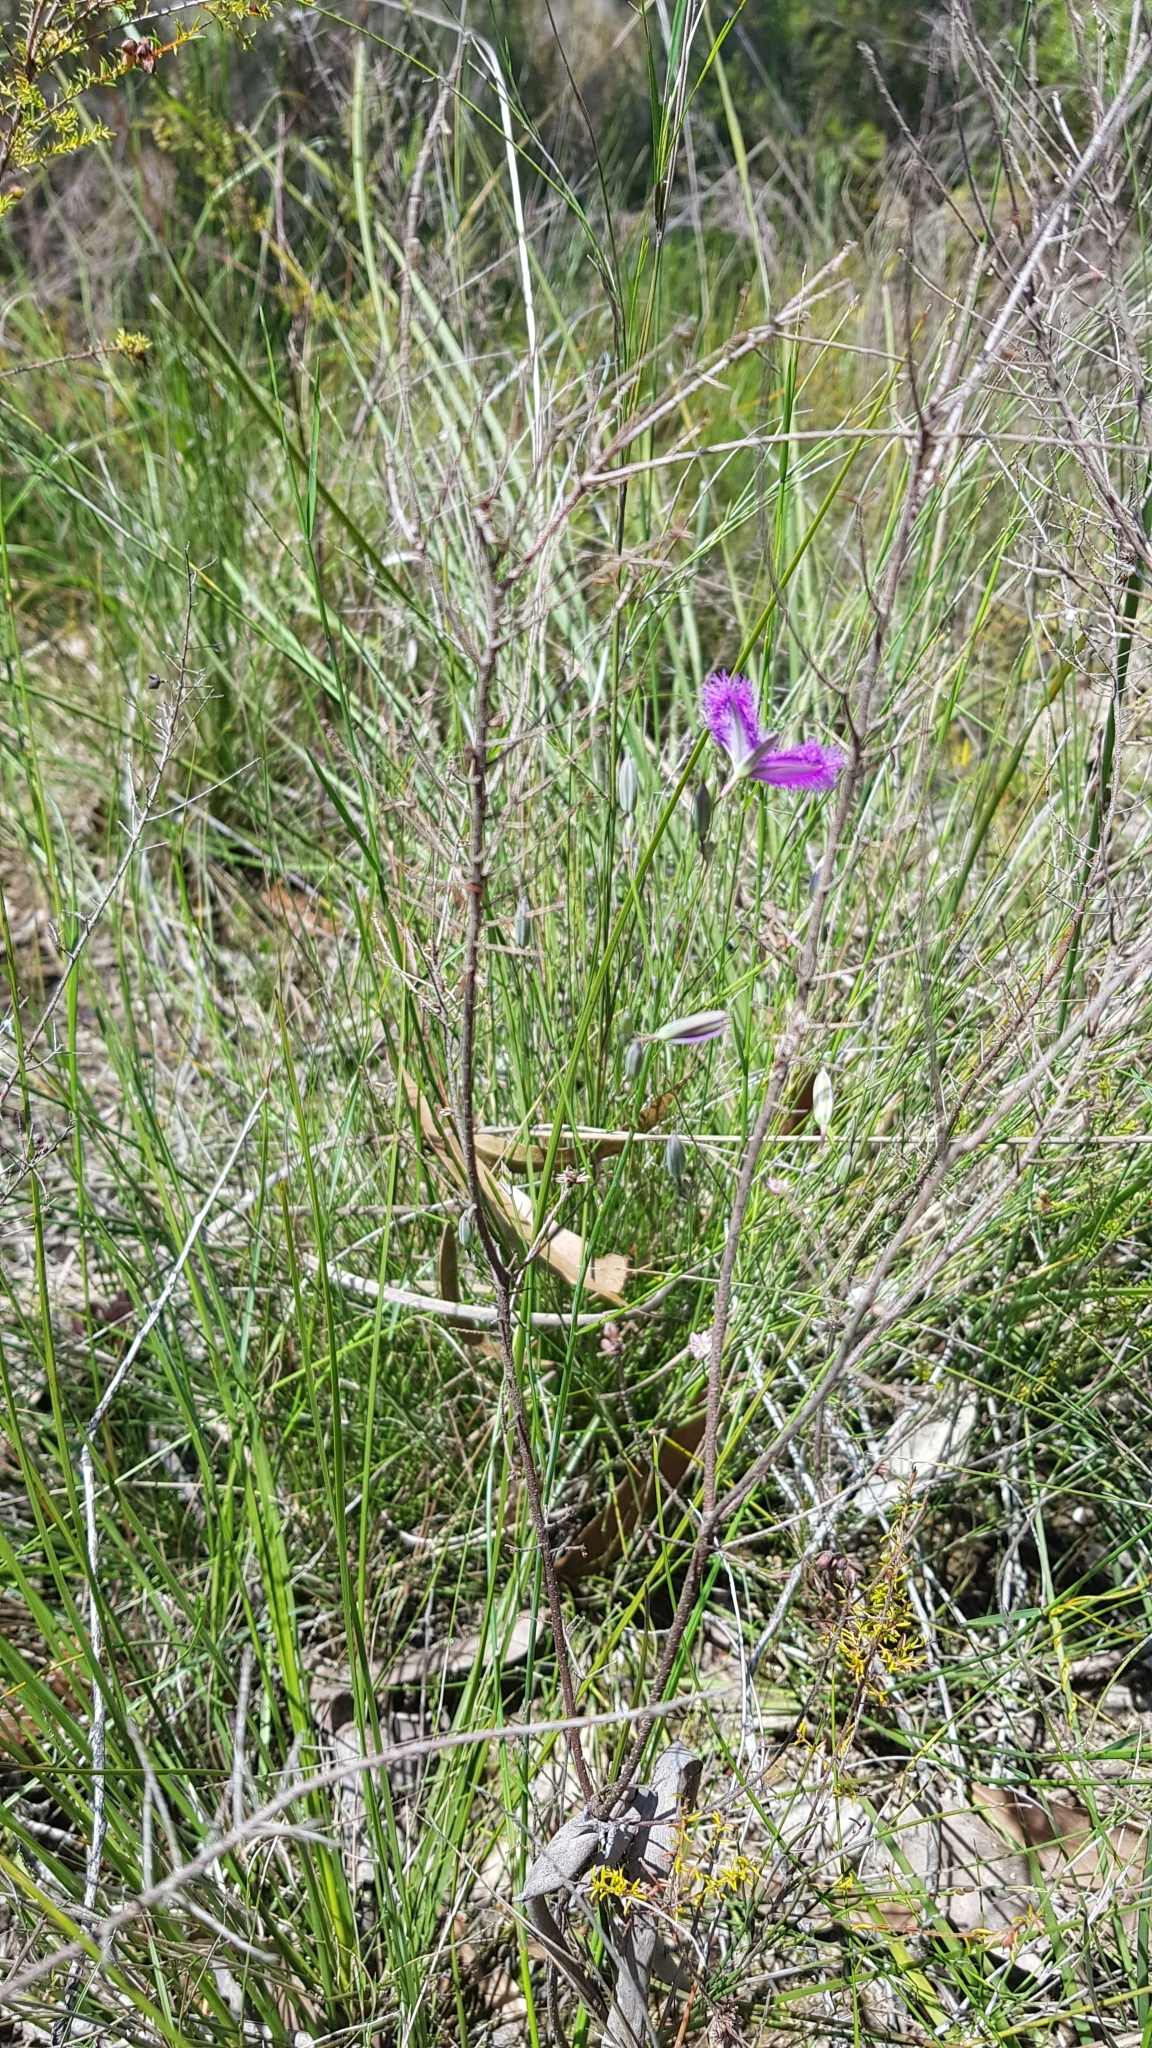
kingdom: Plantae
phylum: Tracheophyta
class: Liliopsida
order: Asparagales
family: Asparagaceae
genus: Thysanotus
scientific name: Thysanotus tuberosus
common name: Common fringed-lily
